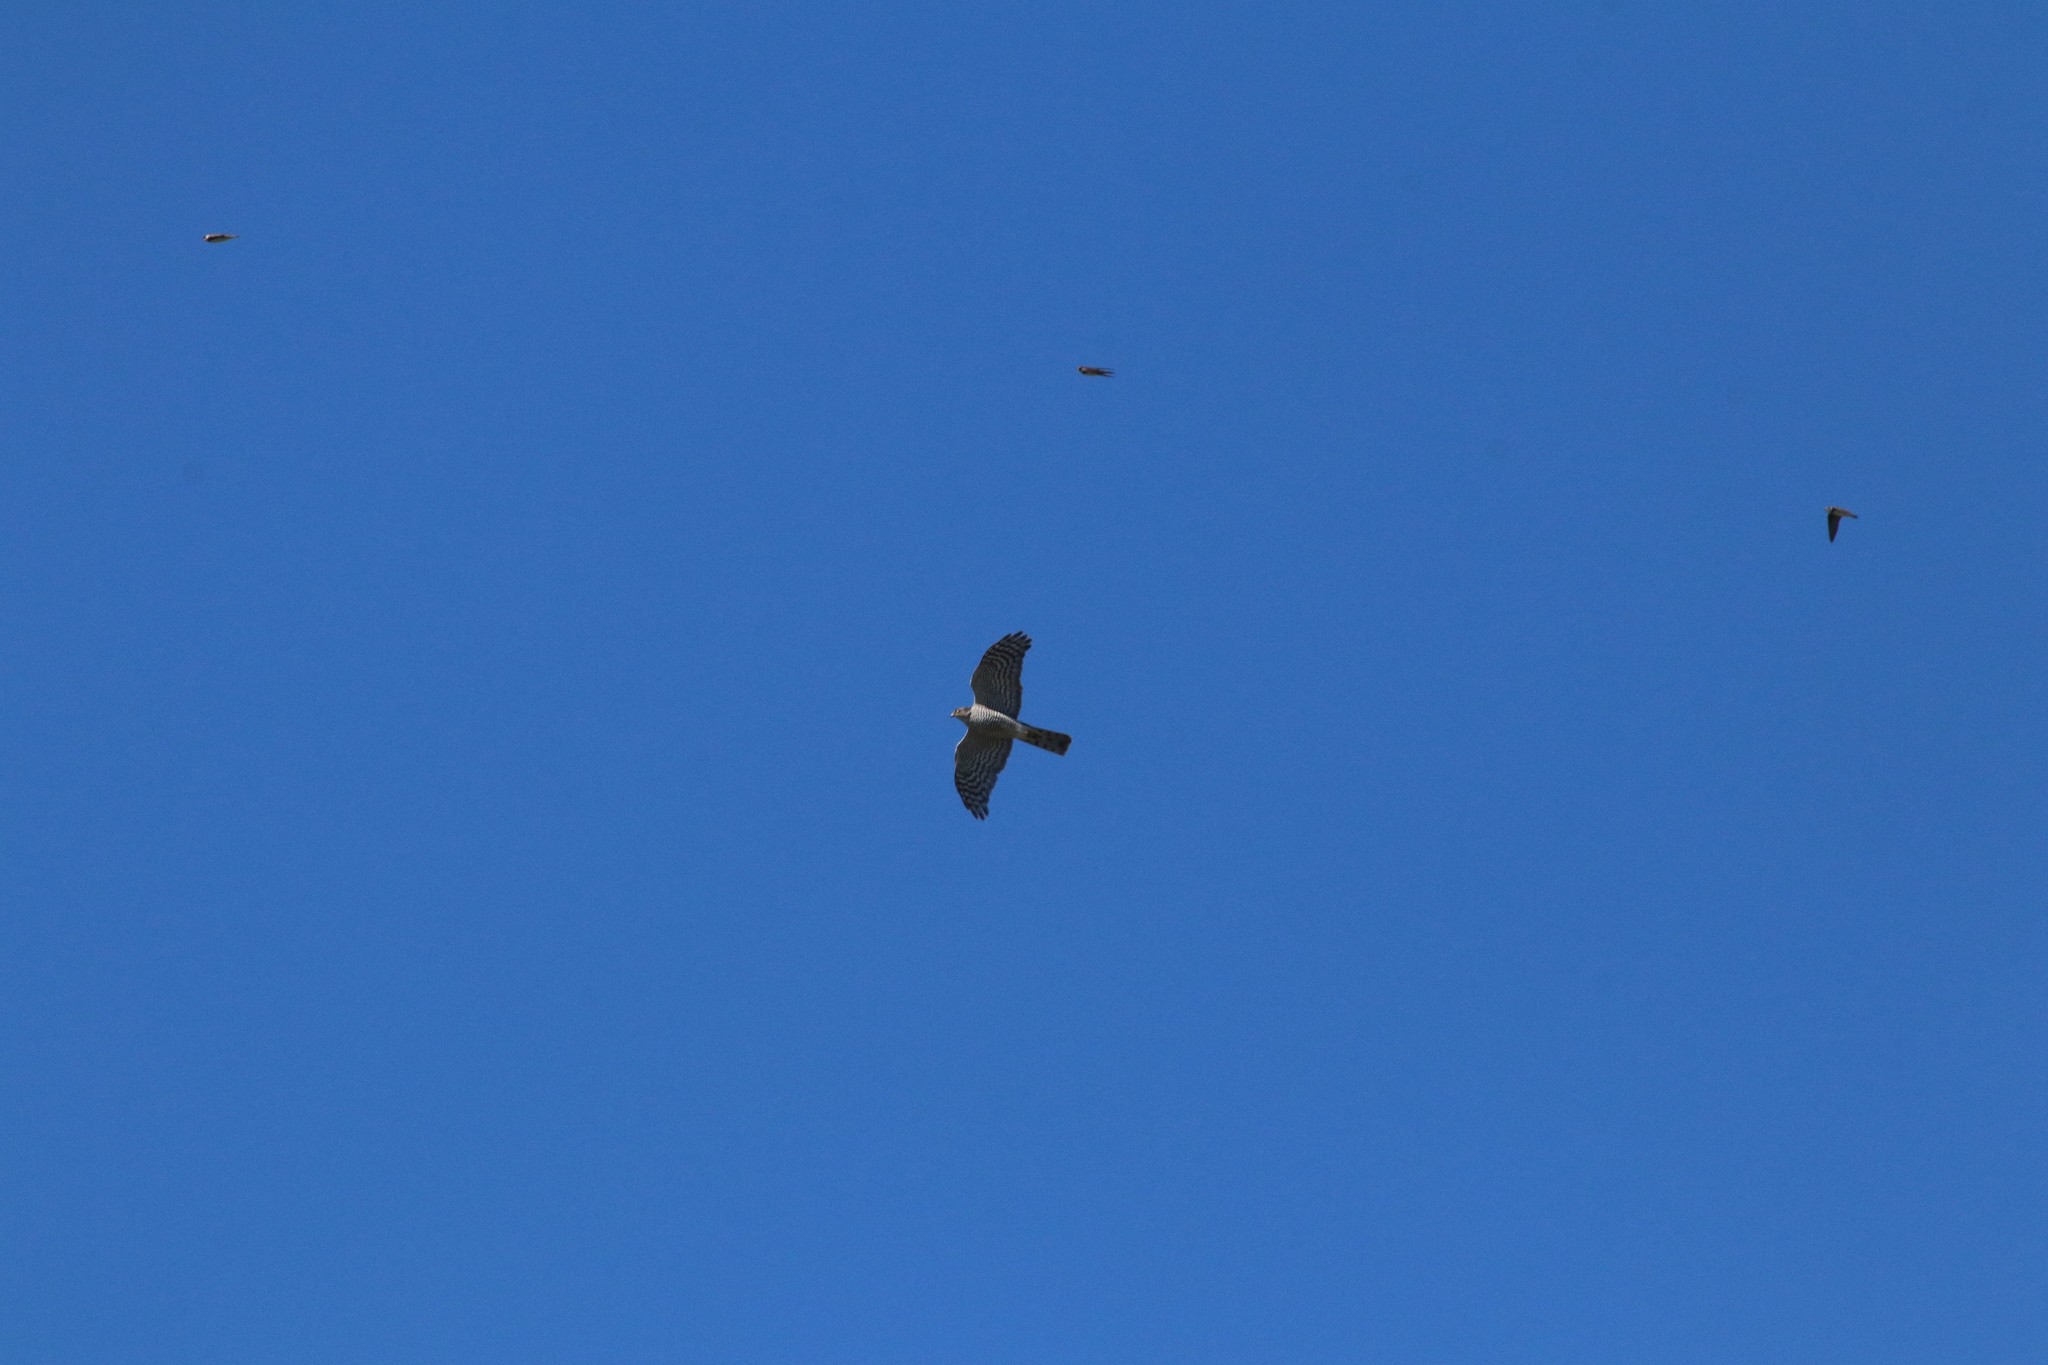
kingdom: Animalia
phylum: Chordata
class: Aves
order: Accipitriformes
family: Accipitridae
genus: Accipiter
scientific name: Accipiter nisus
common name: Eurasian sparrowhawk
